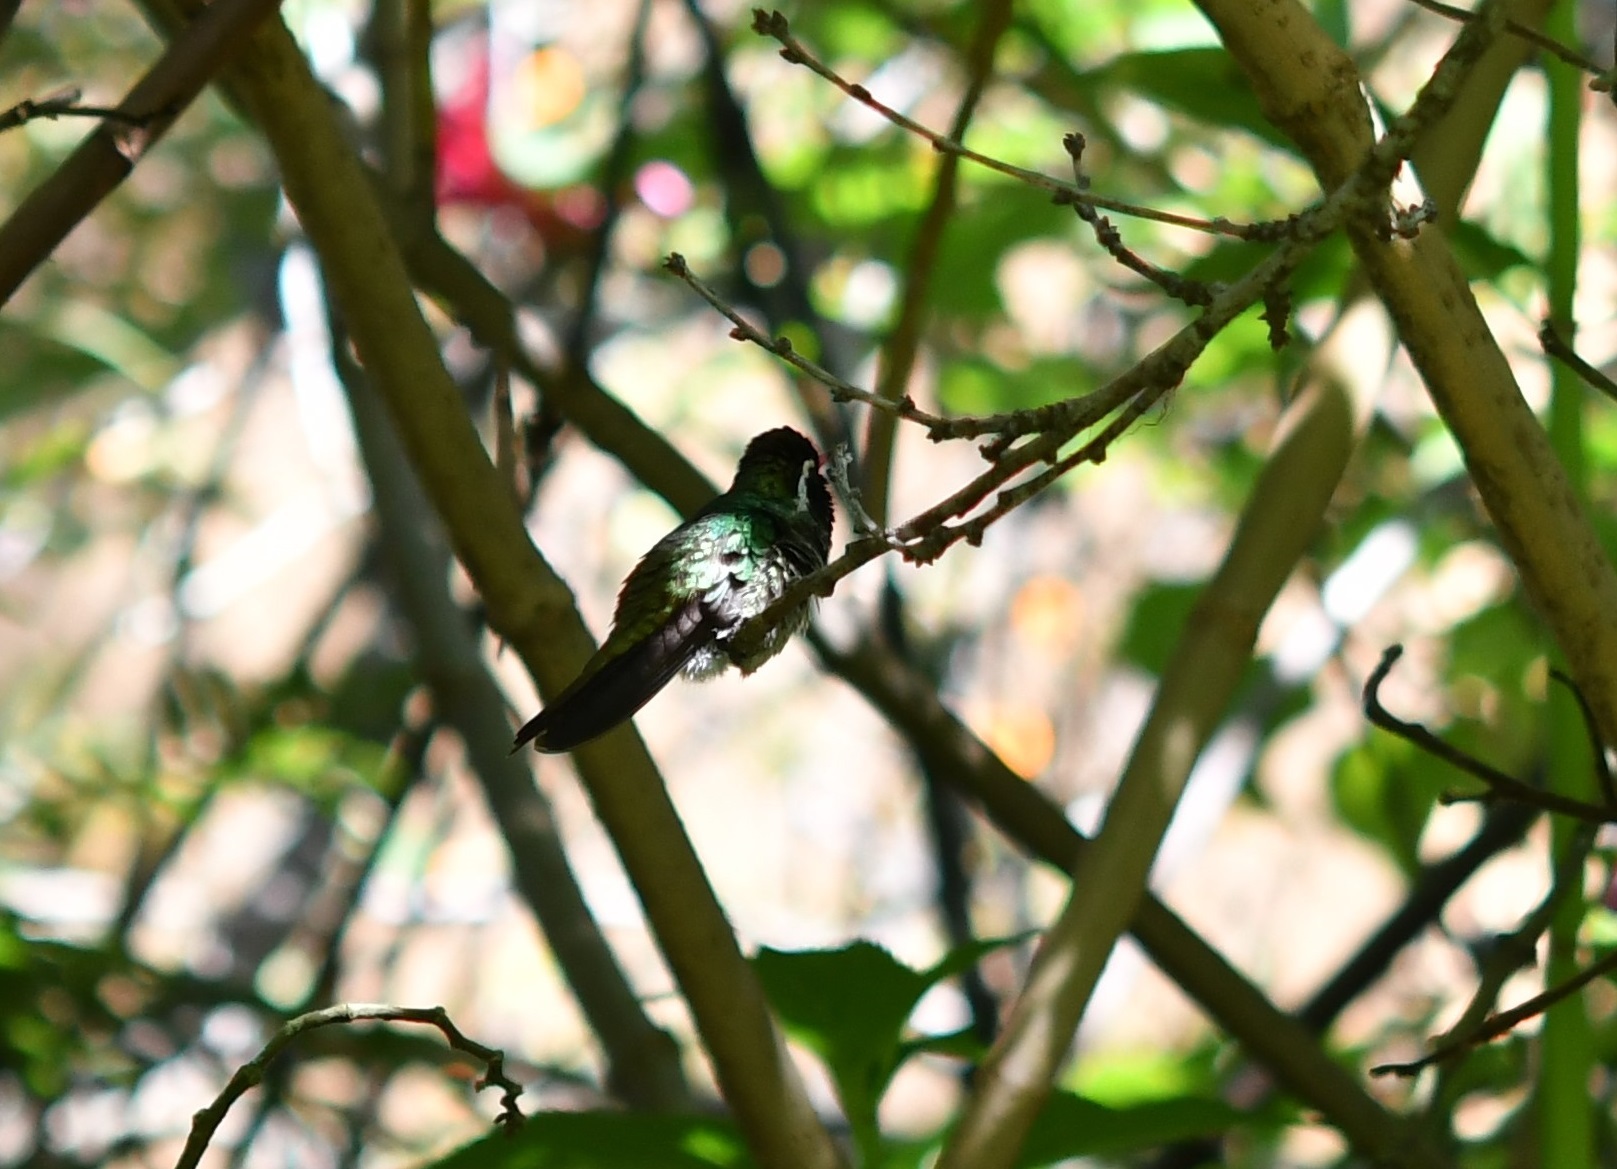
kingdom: Animalia
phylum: Chordata
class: Aves
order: Apodiformes
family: Trochilidae
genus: Basilinna
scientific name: Basilinna leucotis
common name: White-eared hummingbird
